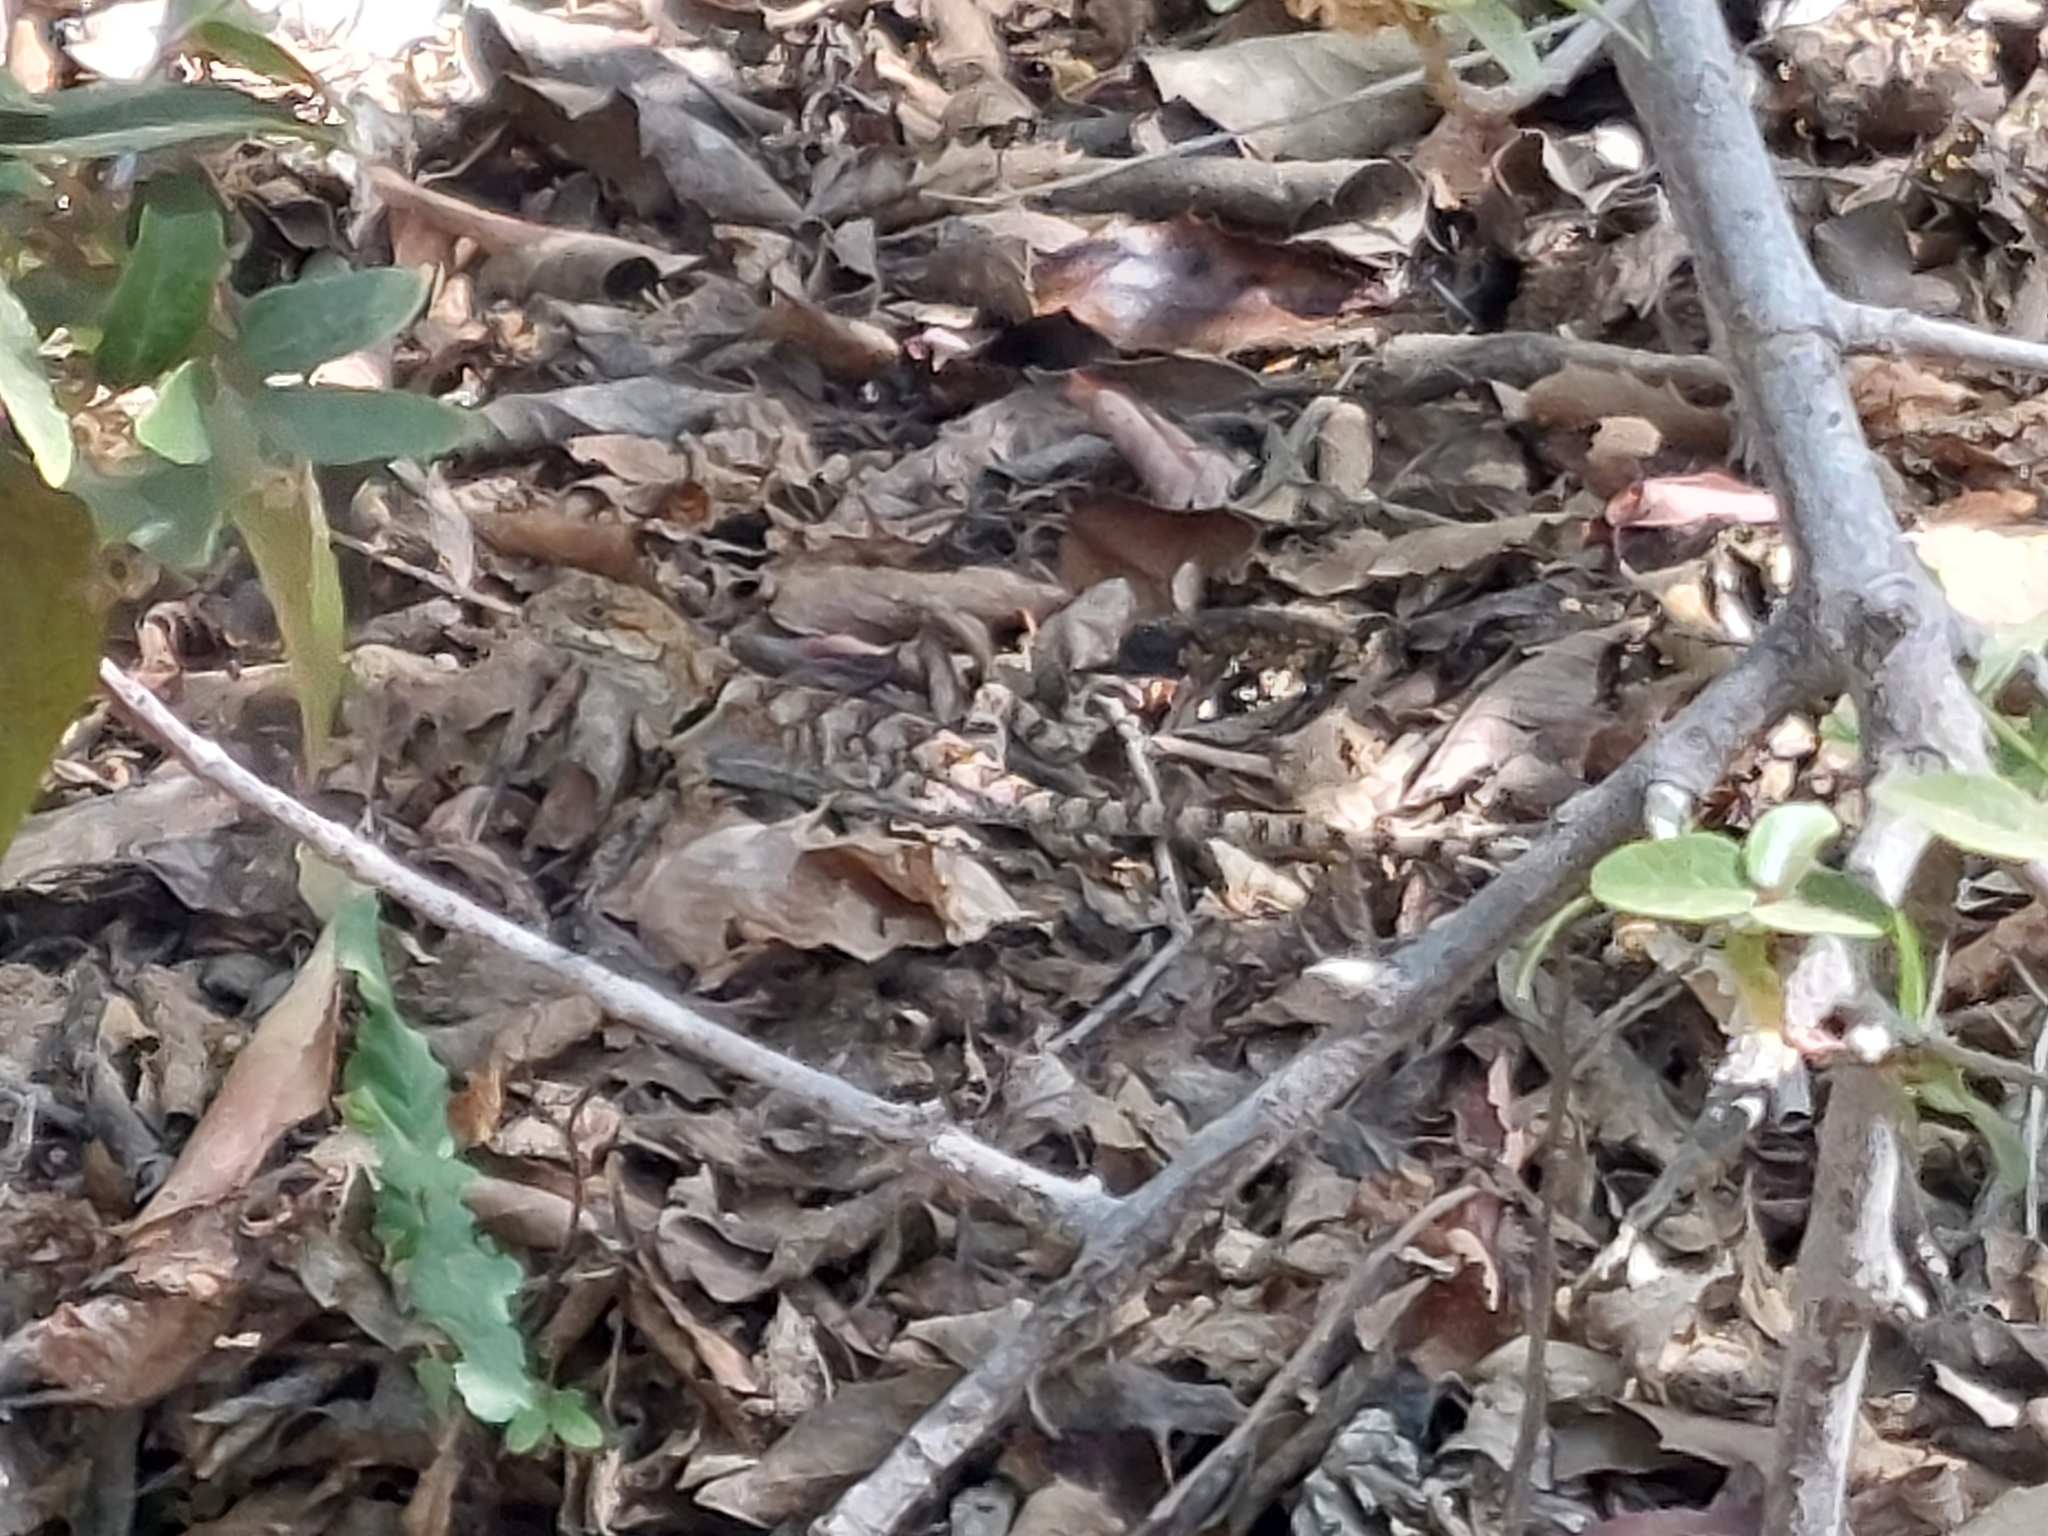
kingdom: Animalia
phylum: Chordata
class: Squamata
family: Leiosauridae
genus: Pristidactylus
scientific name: Pristidactylus torquatus
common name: Southern grumbler
